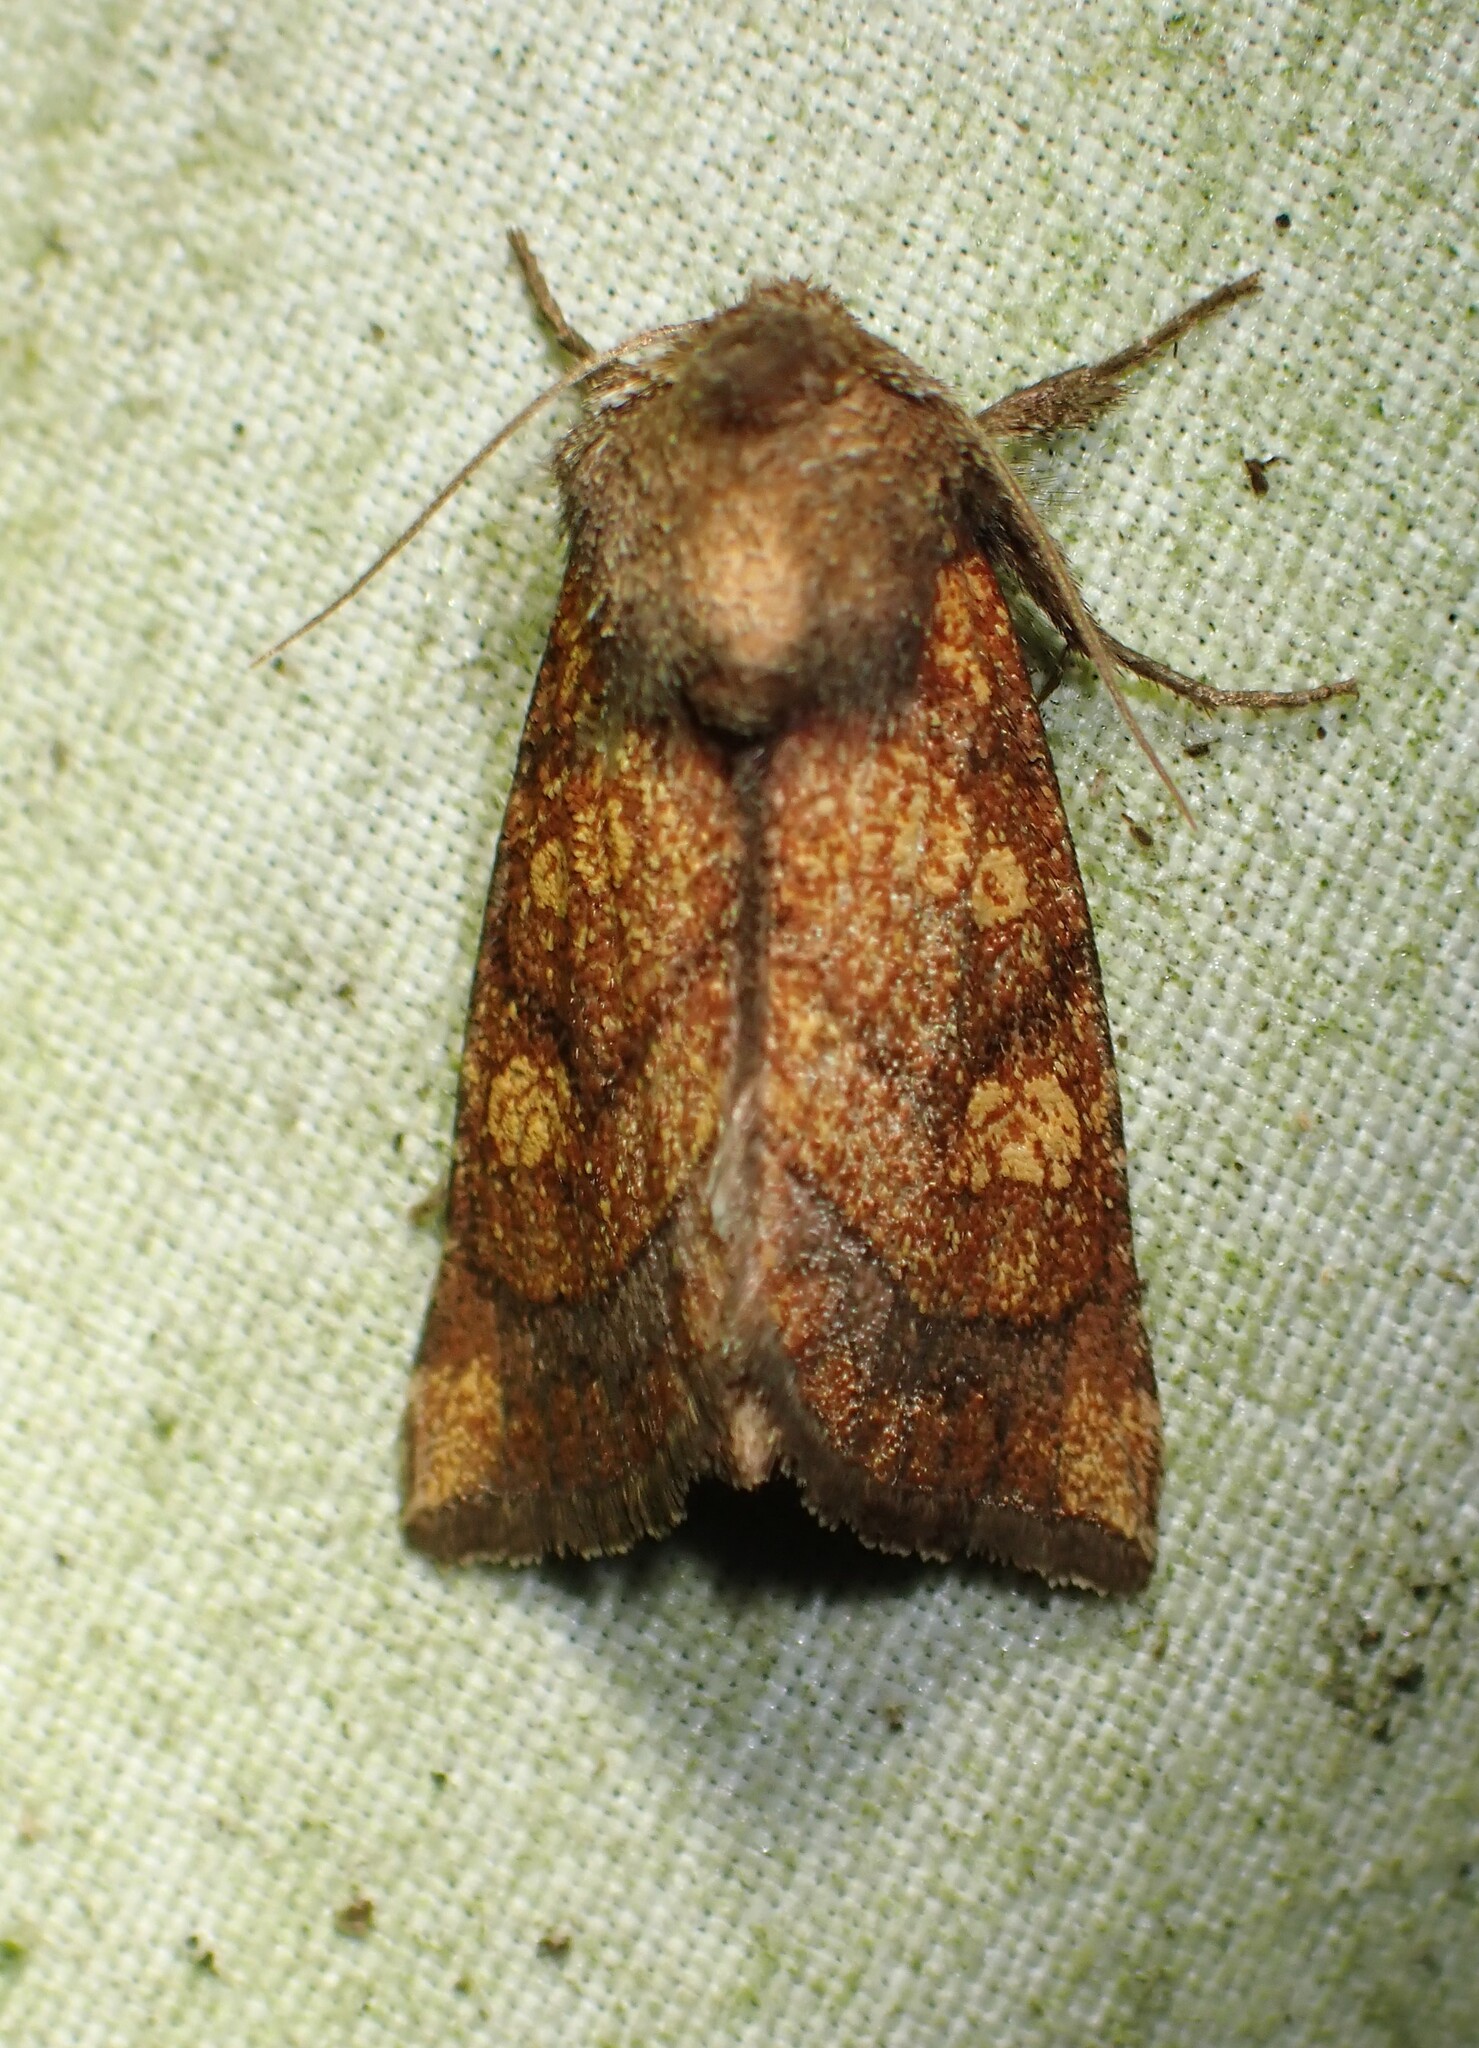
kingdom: Animalia
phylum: Arthropoda
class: Insecta
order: Lepidoptera
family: Noctuidae
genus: Papaipema
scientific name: Papaipema impecuniosa
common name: Aster borer moth
